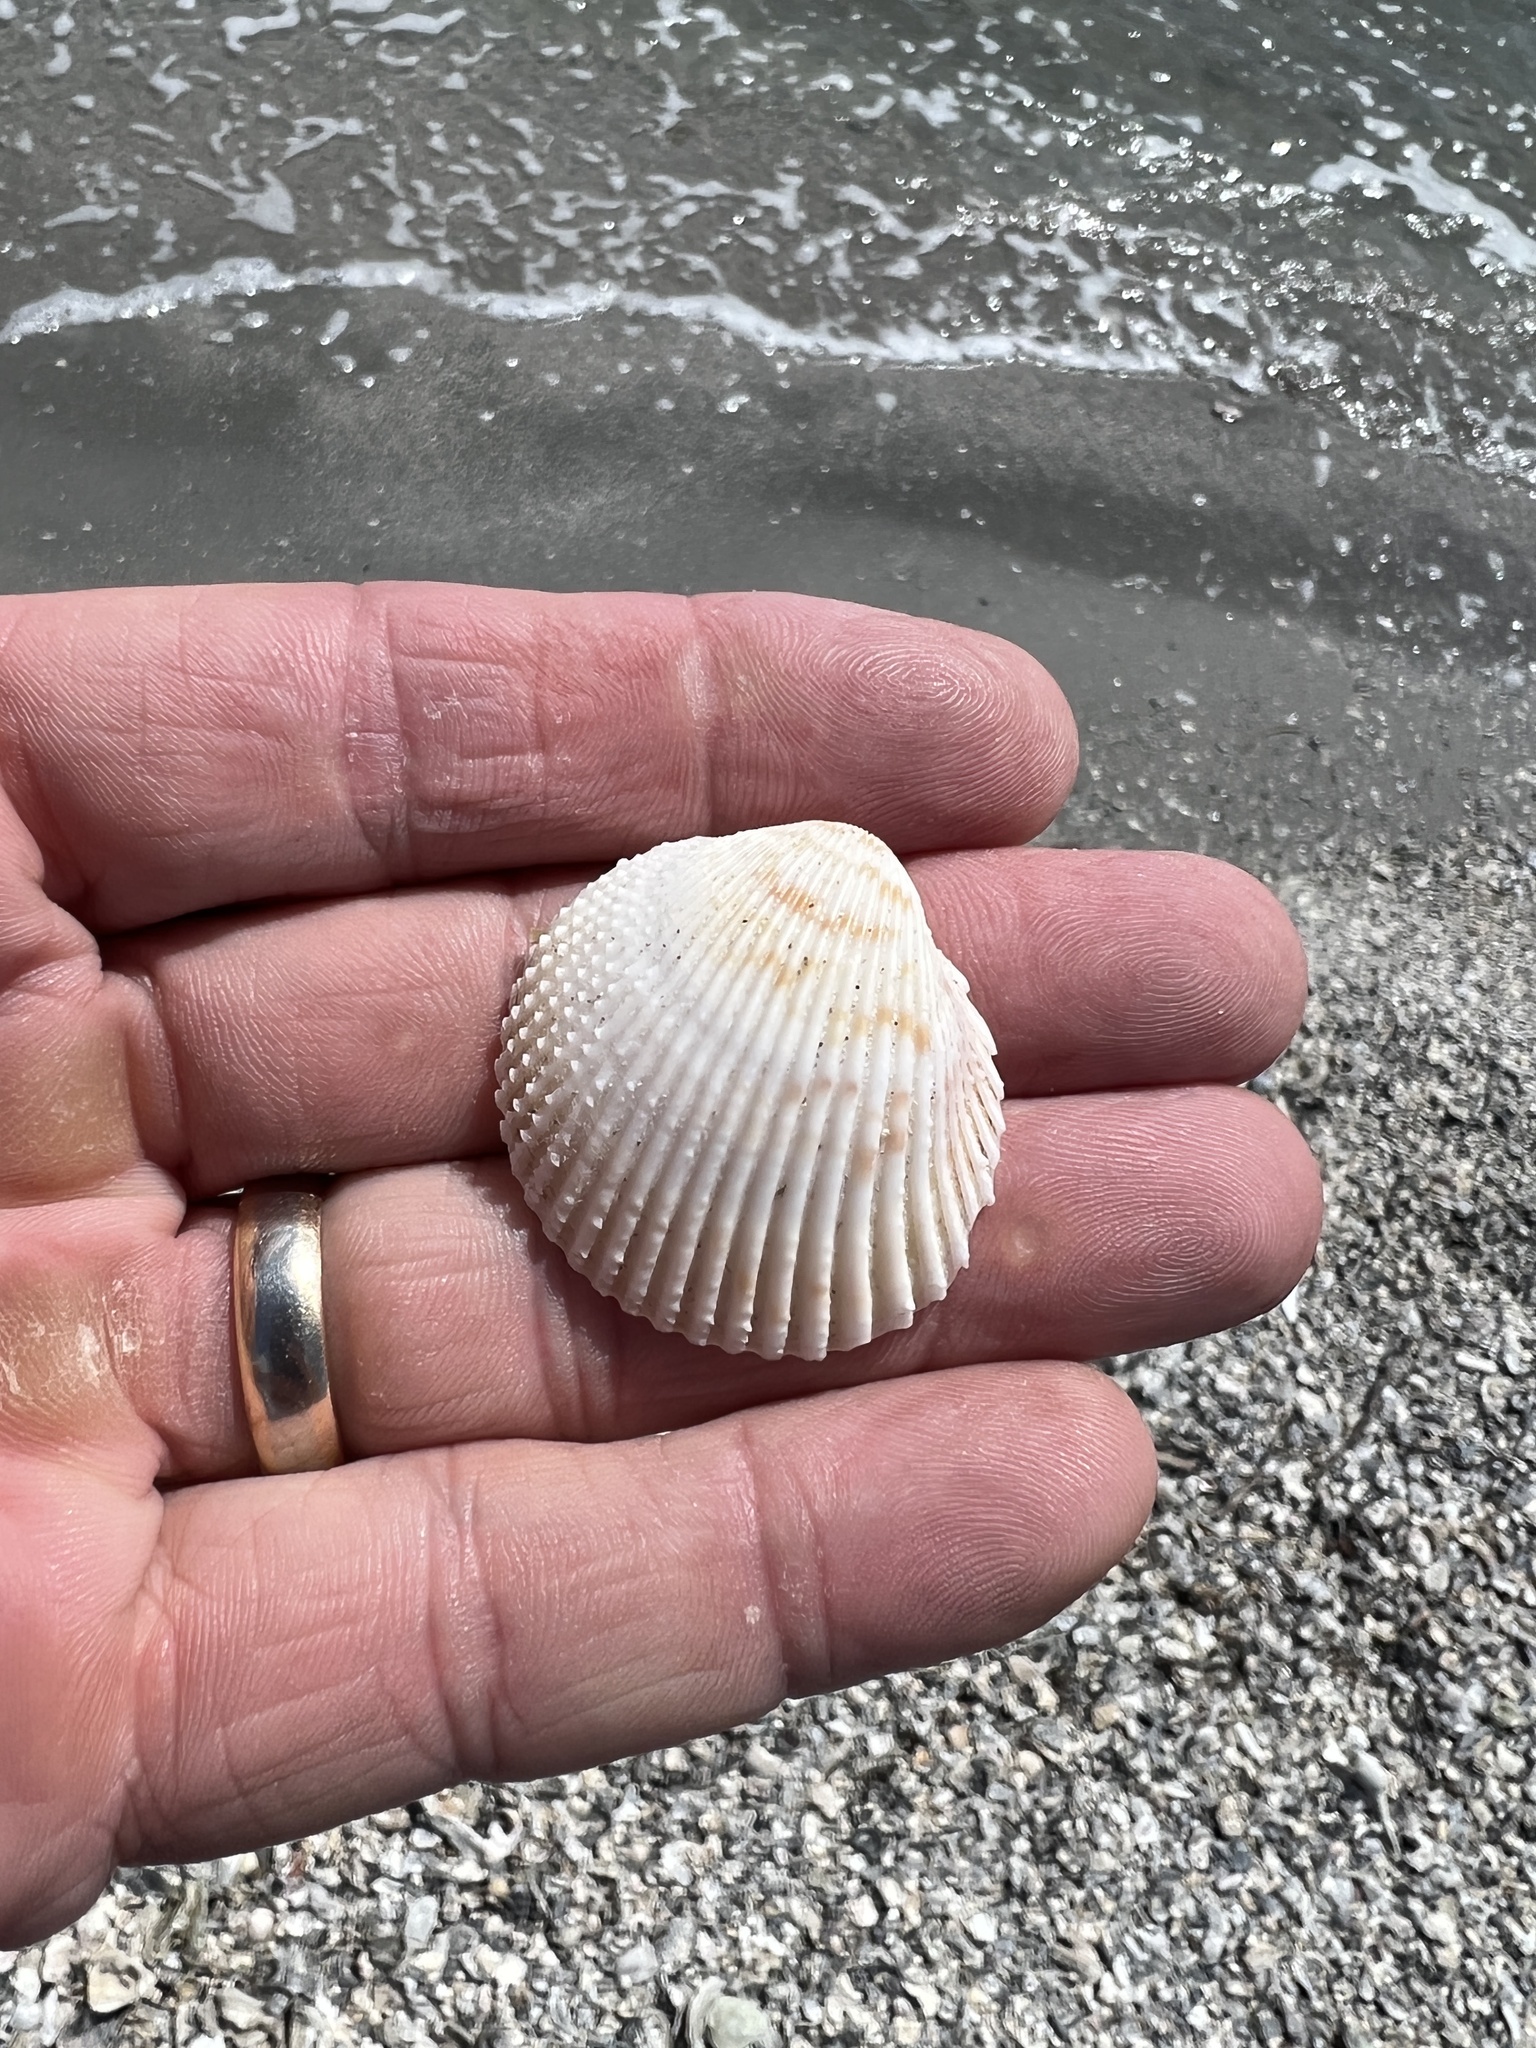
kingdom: Animalia
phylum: Mollusca
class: Bivalvia
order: Cardiida
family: Cardiidae
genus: Trachycardium
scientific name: Trachycardium egmontianum
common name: Florida pricklycockle
